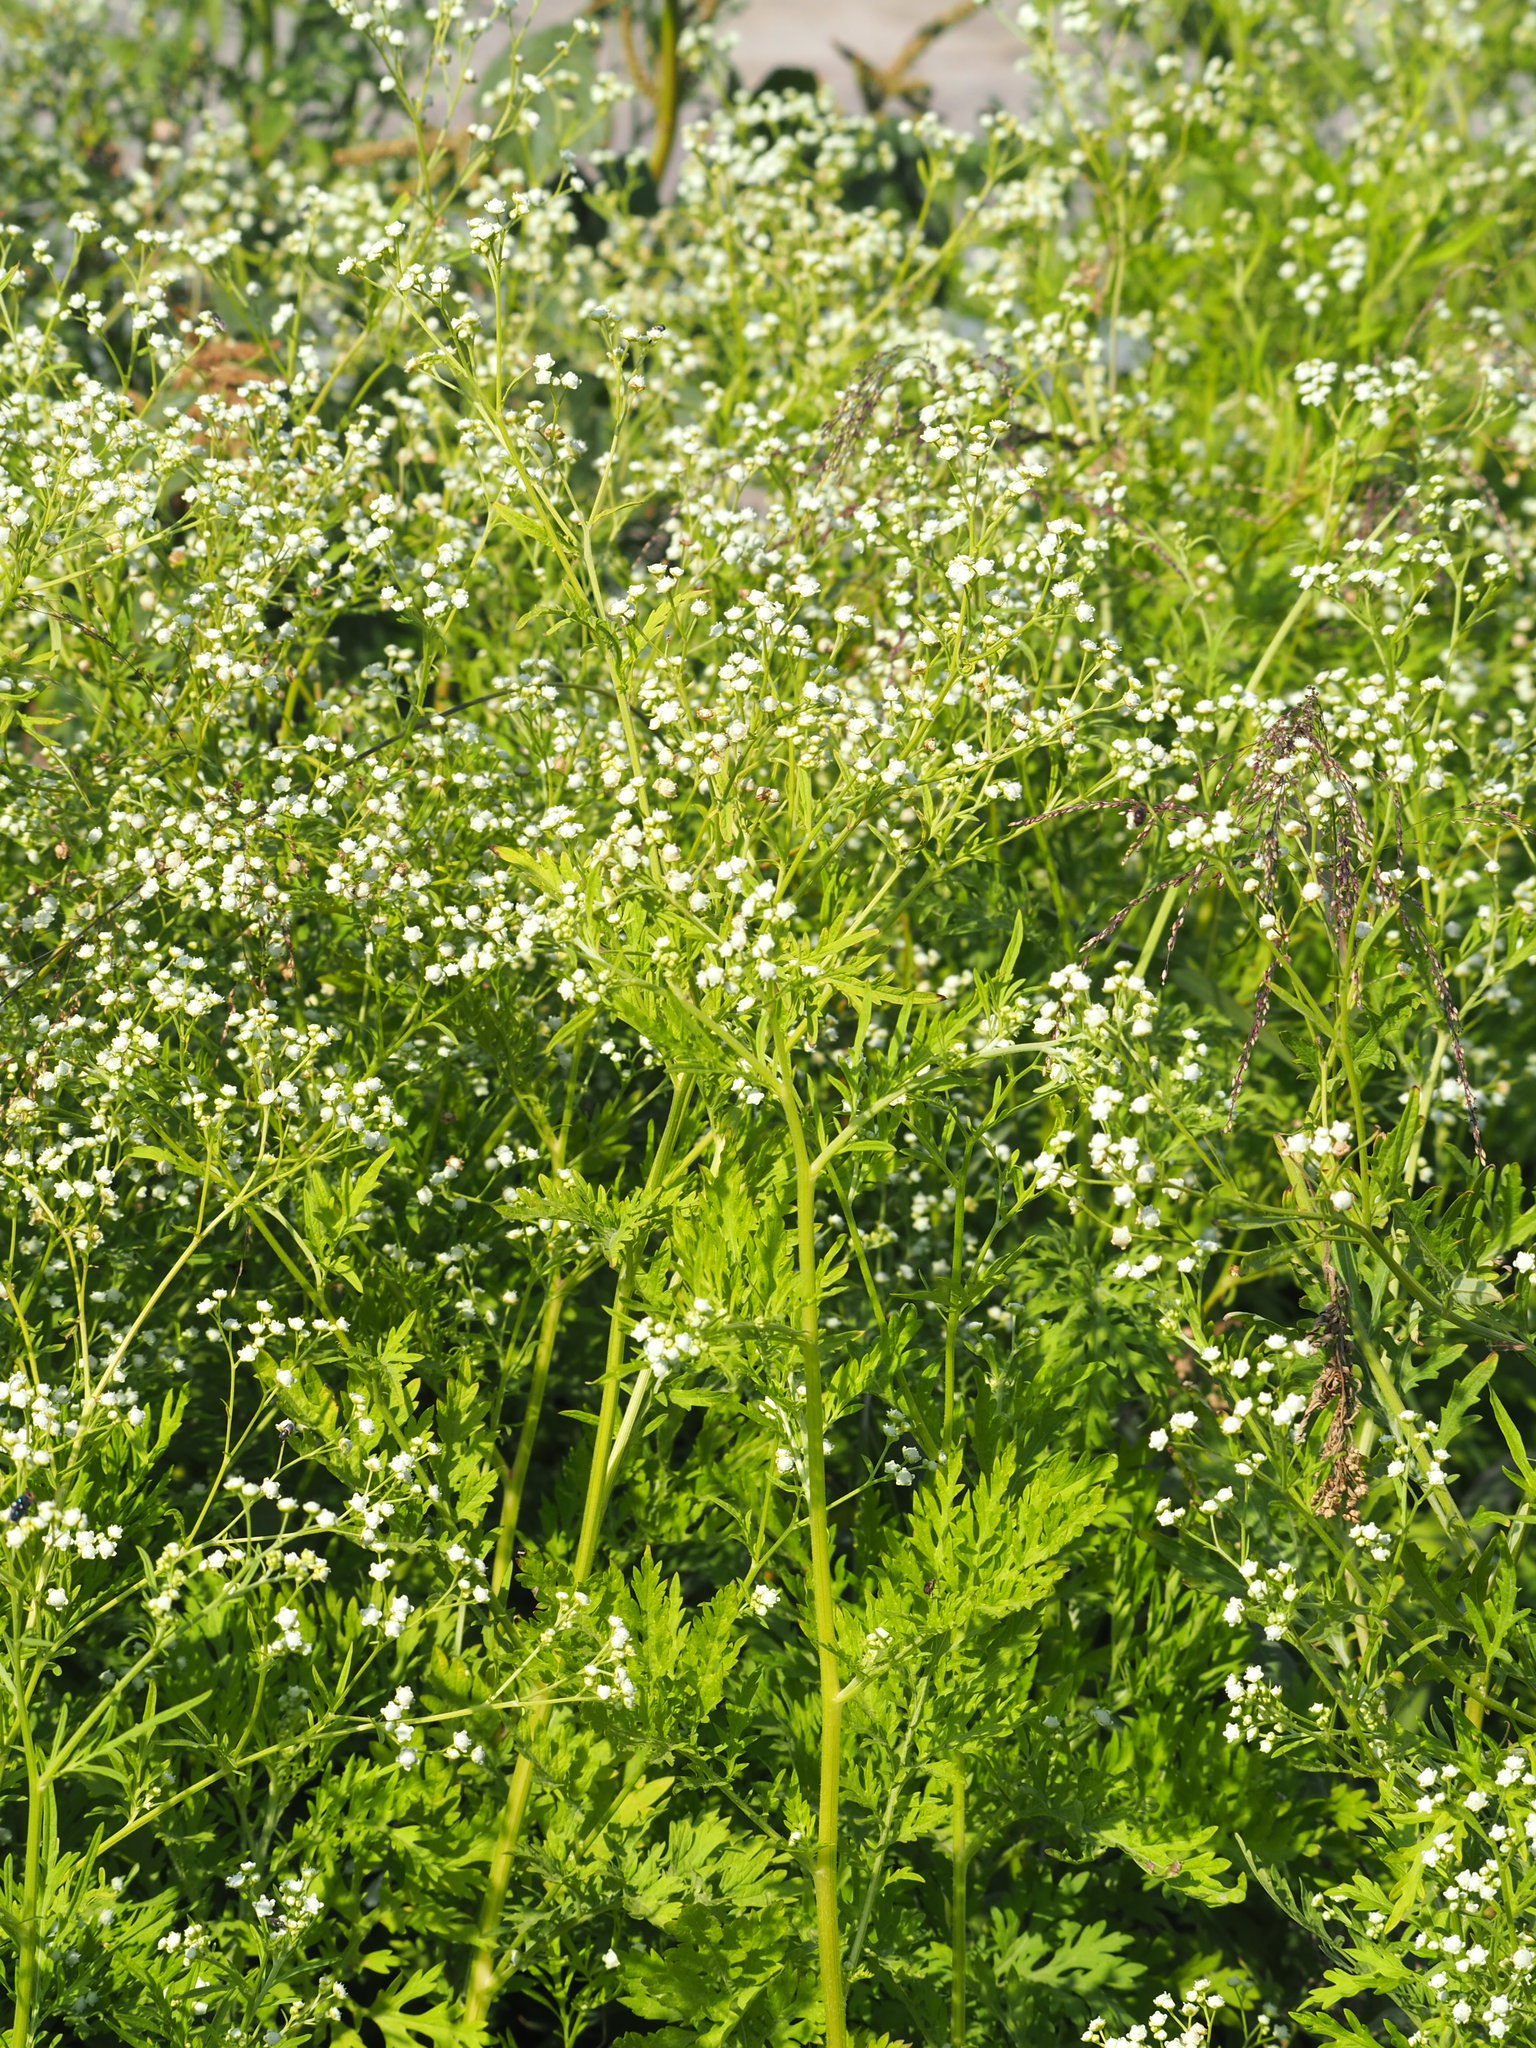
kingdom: Plantae
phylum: Tracheophyta
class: Magnoliopsida
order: Asterales
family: Asteraceae
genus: Parthenium
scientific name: Parthenium hysterophorus
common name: Santa maria feverfew
